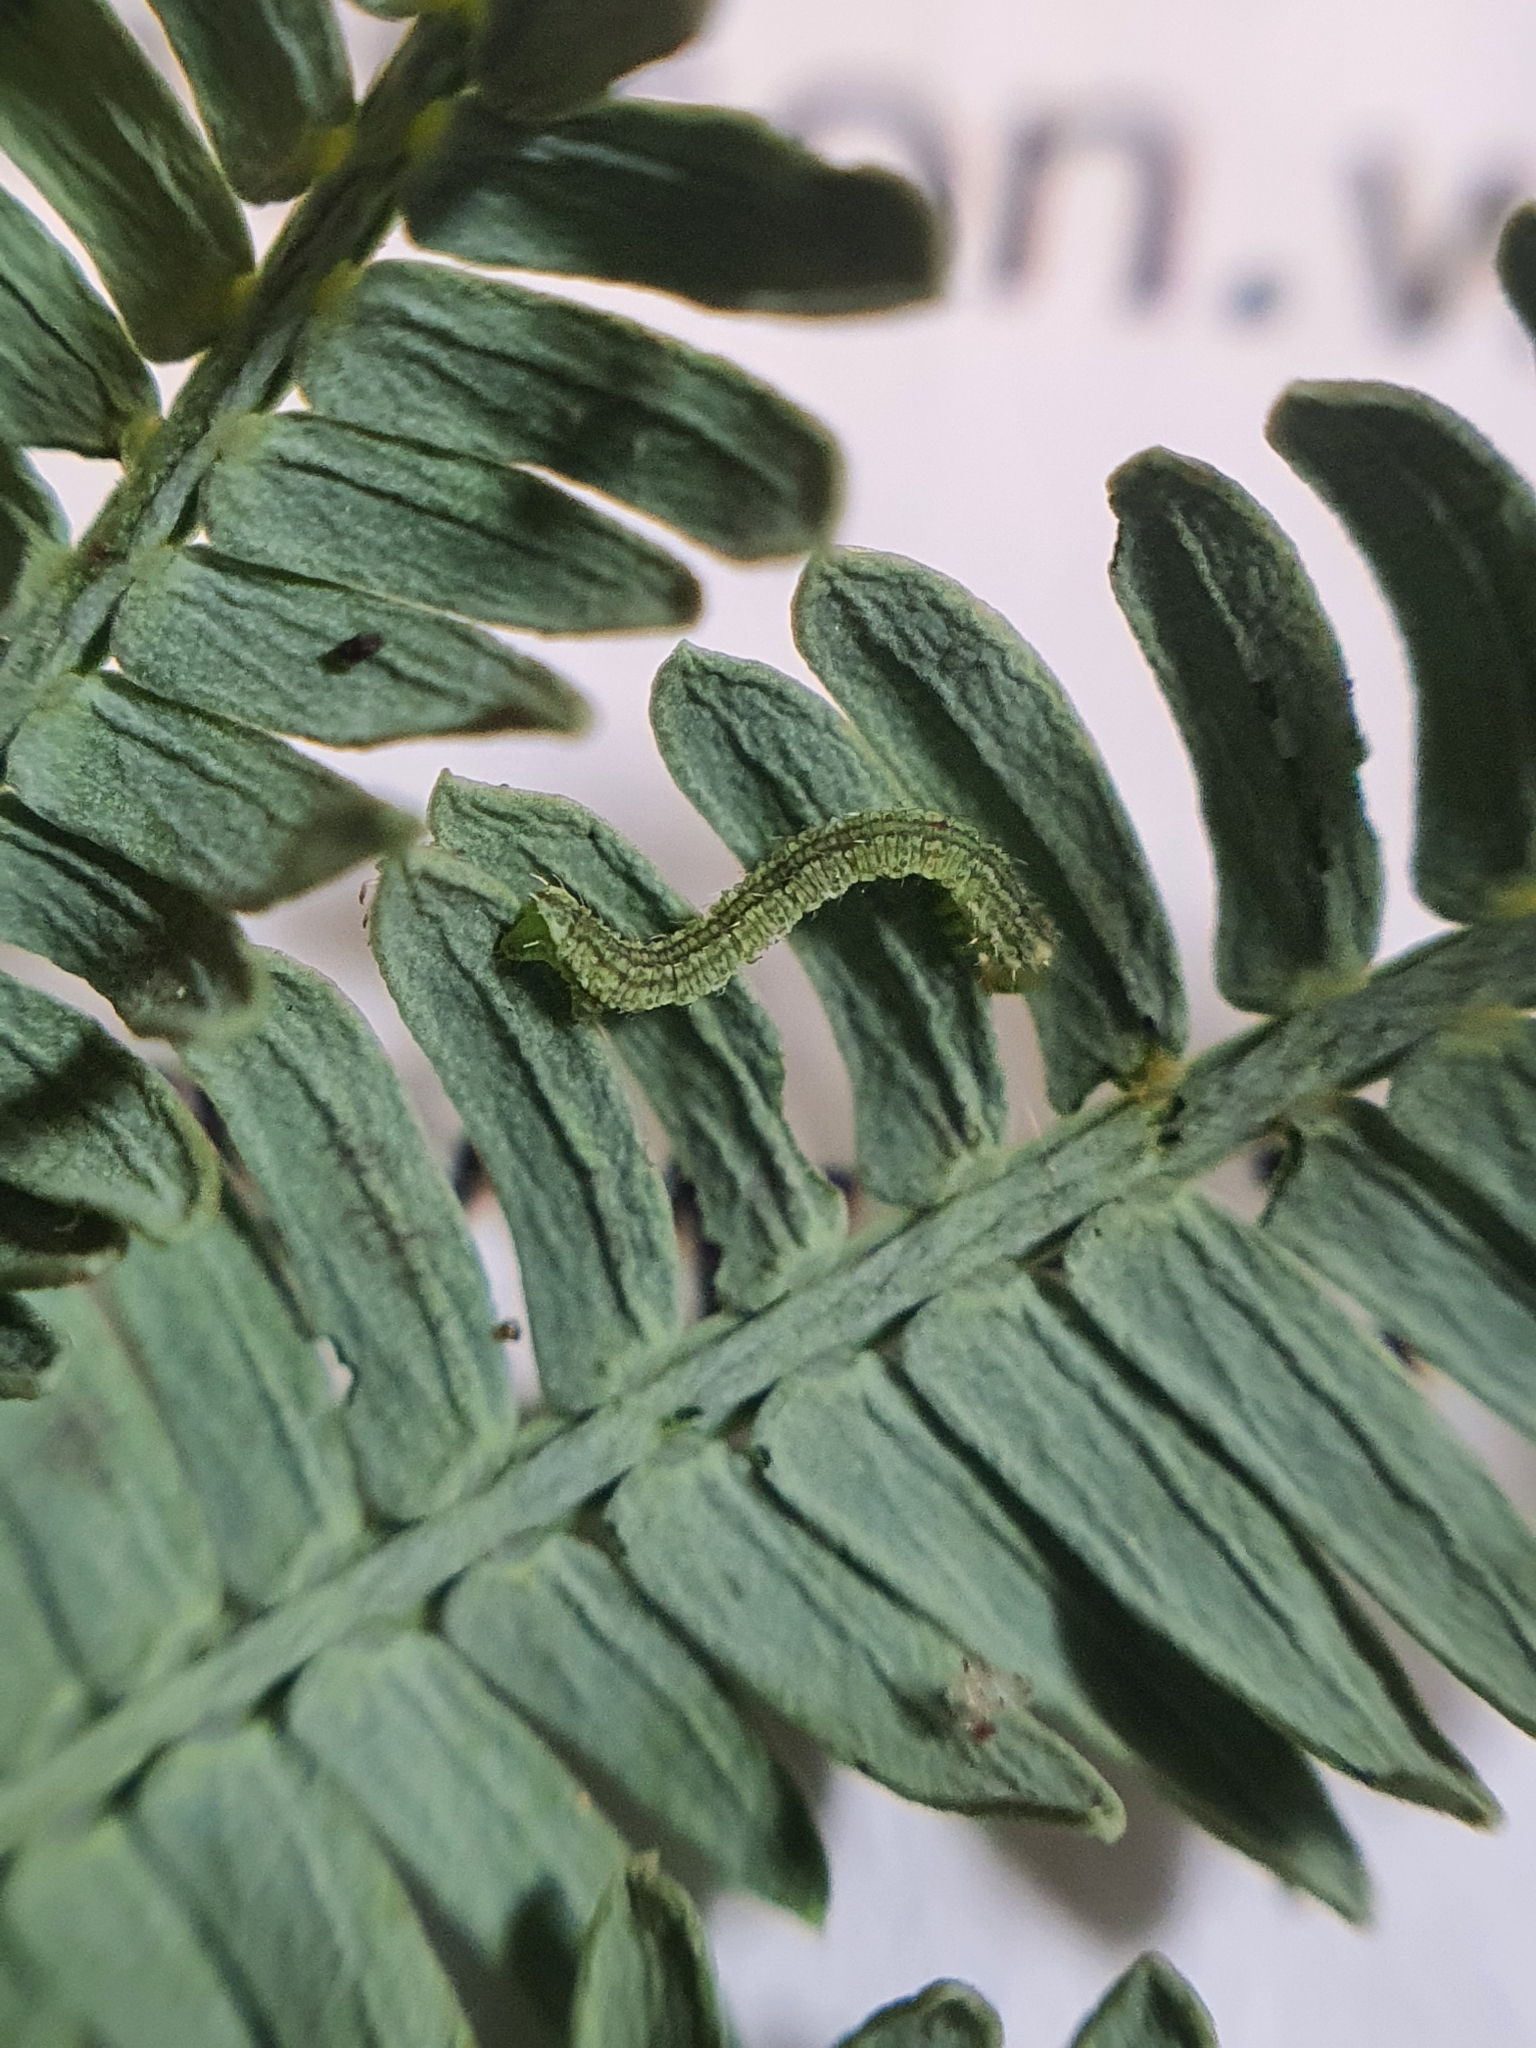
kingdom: Animalia
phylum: Arthropoda
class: Insecta
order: Lepidoptera
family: Geometridae
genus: Microdes
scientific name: Microdes squamulata
